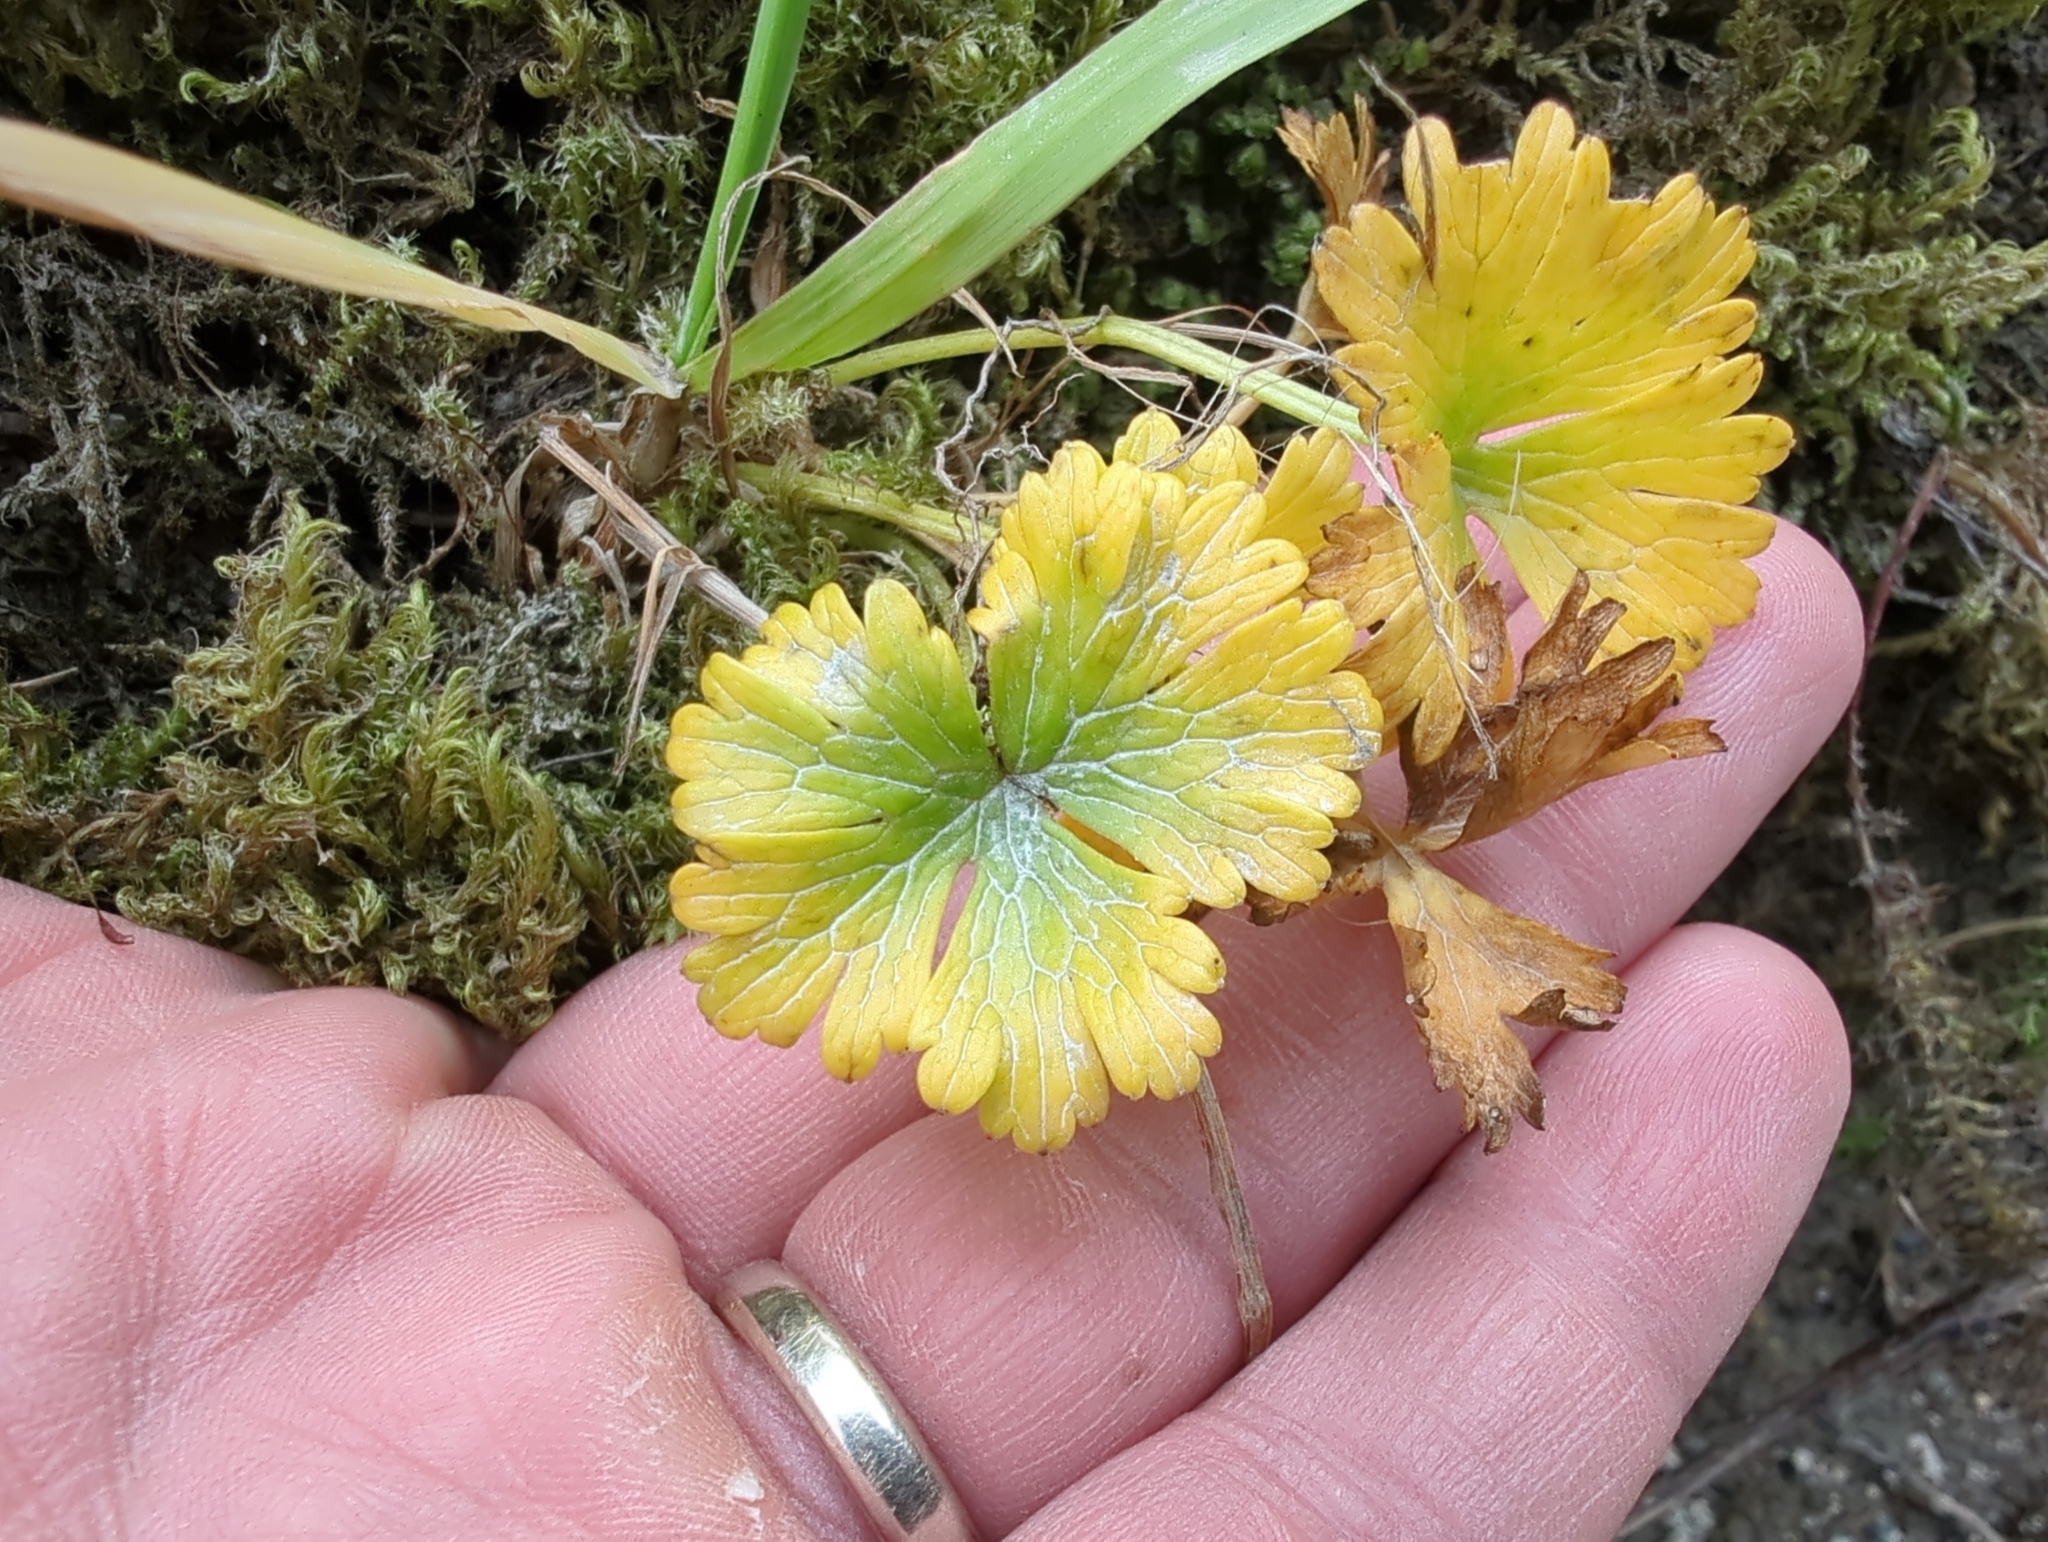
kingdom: Plantae
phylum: Tracheophyta
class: Magnoliopsida
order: Ranunculales
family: Ranunculaceae
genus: Arcteranthis
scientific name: Arcteranthis cooleyae
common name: Cooley's buttercup
